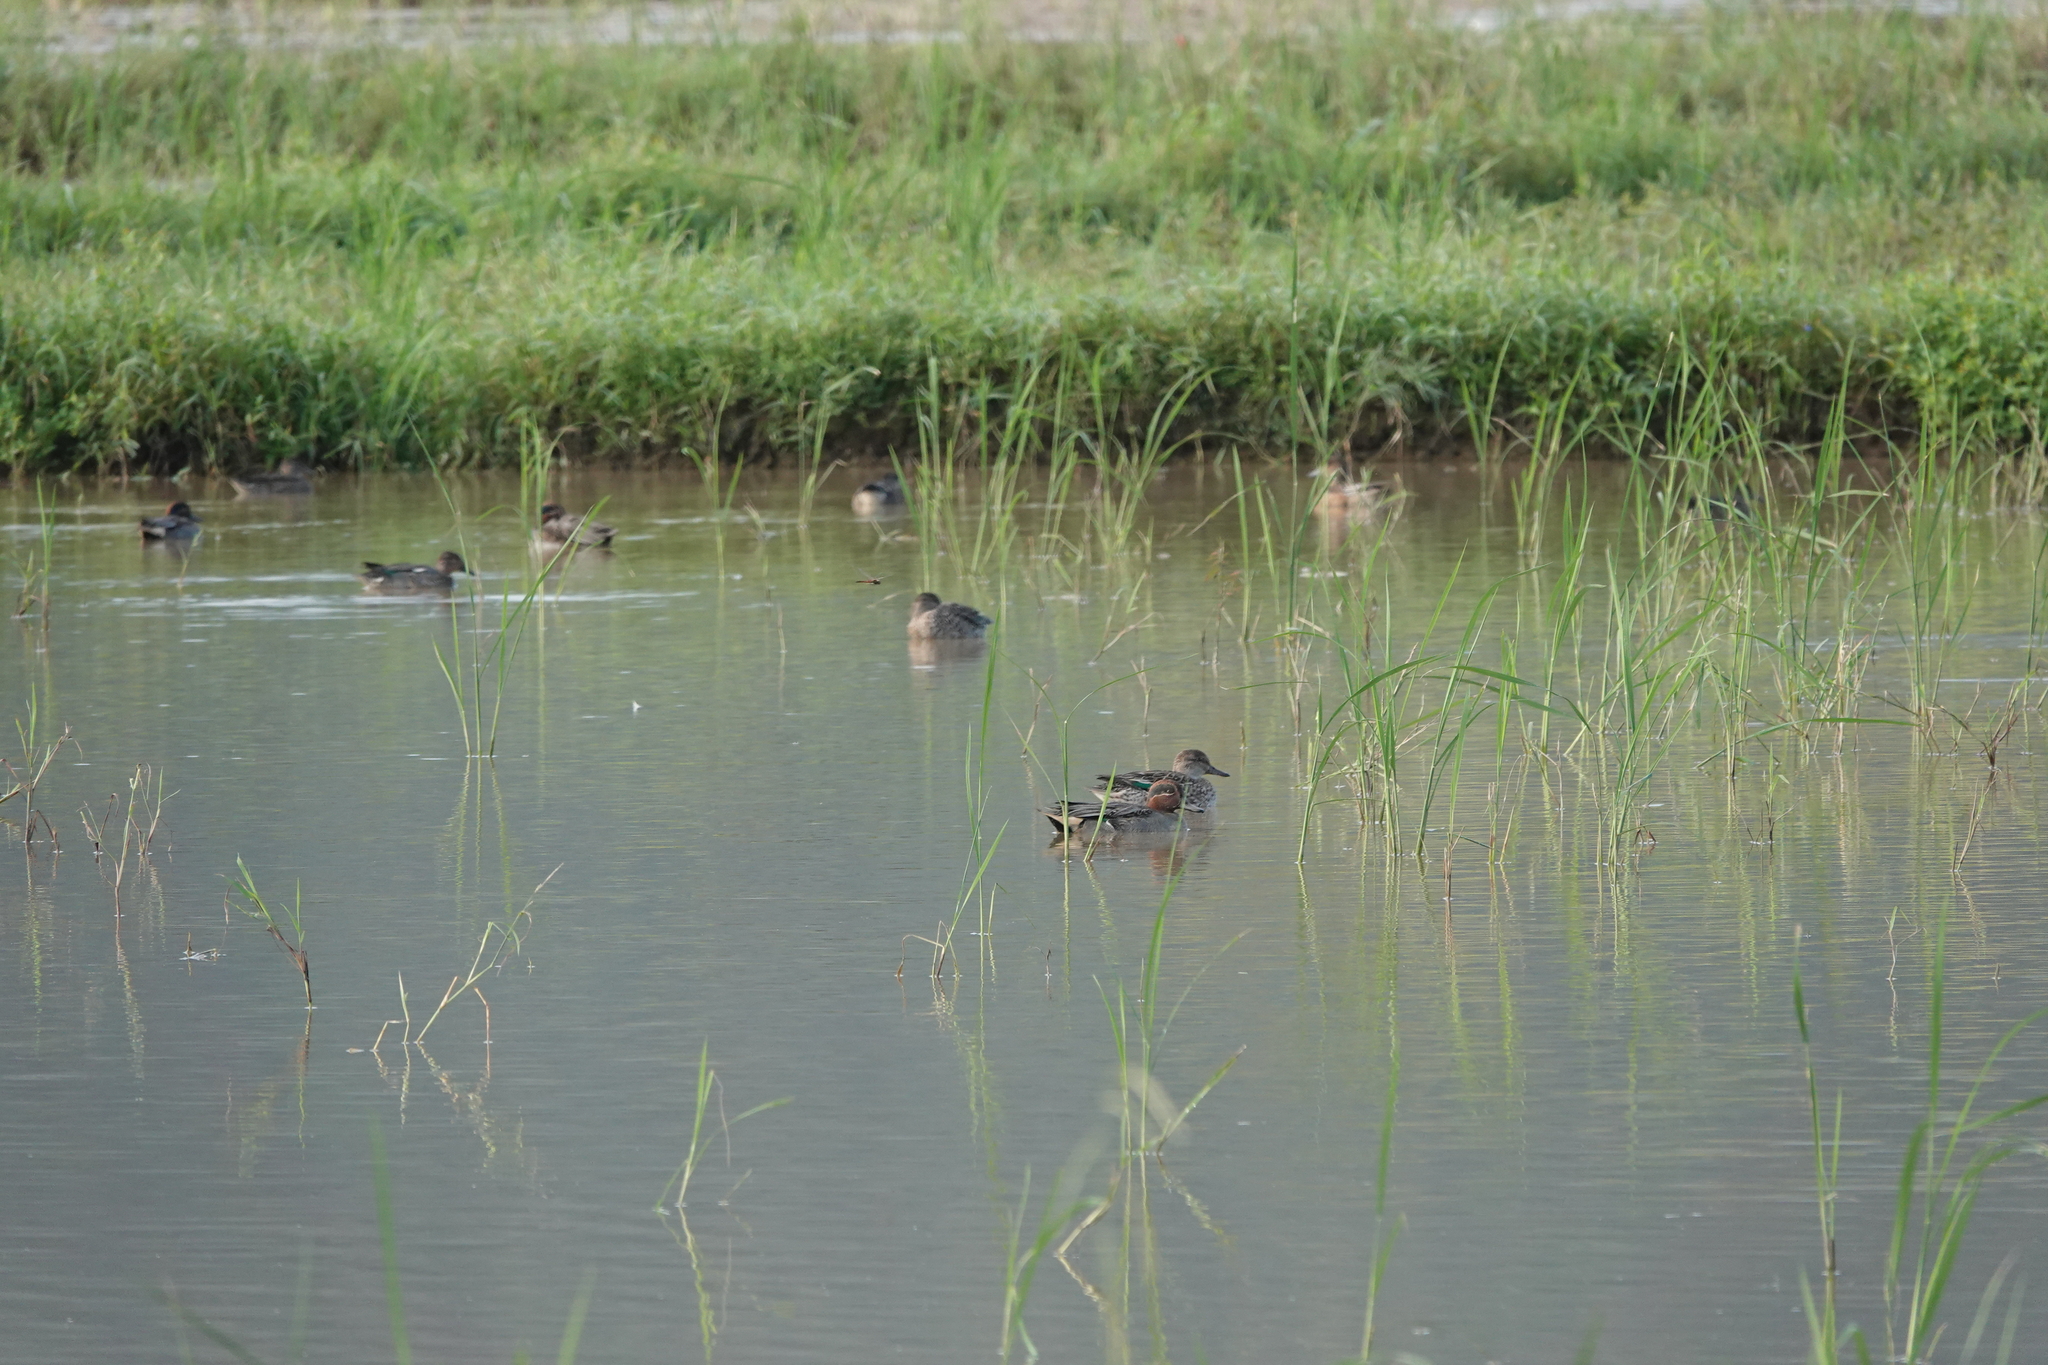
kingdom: Animalia
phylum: Chordata
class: Aves
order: Anseriformes
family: Anatidae
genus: Anas
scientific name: Anas crecca
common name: Eurasian teal
